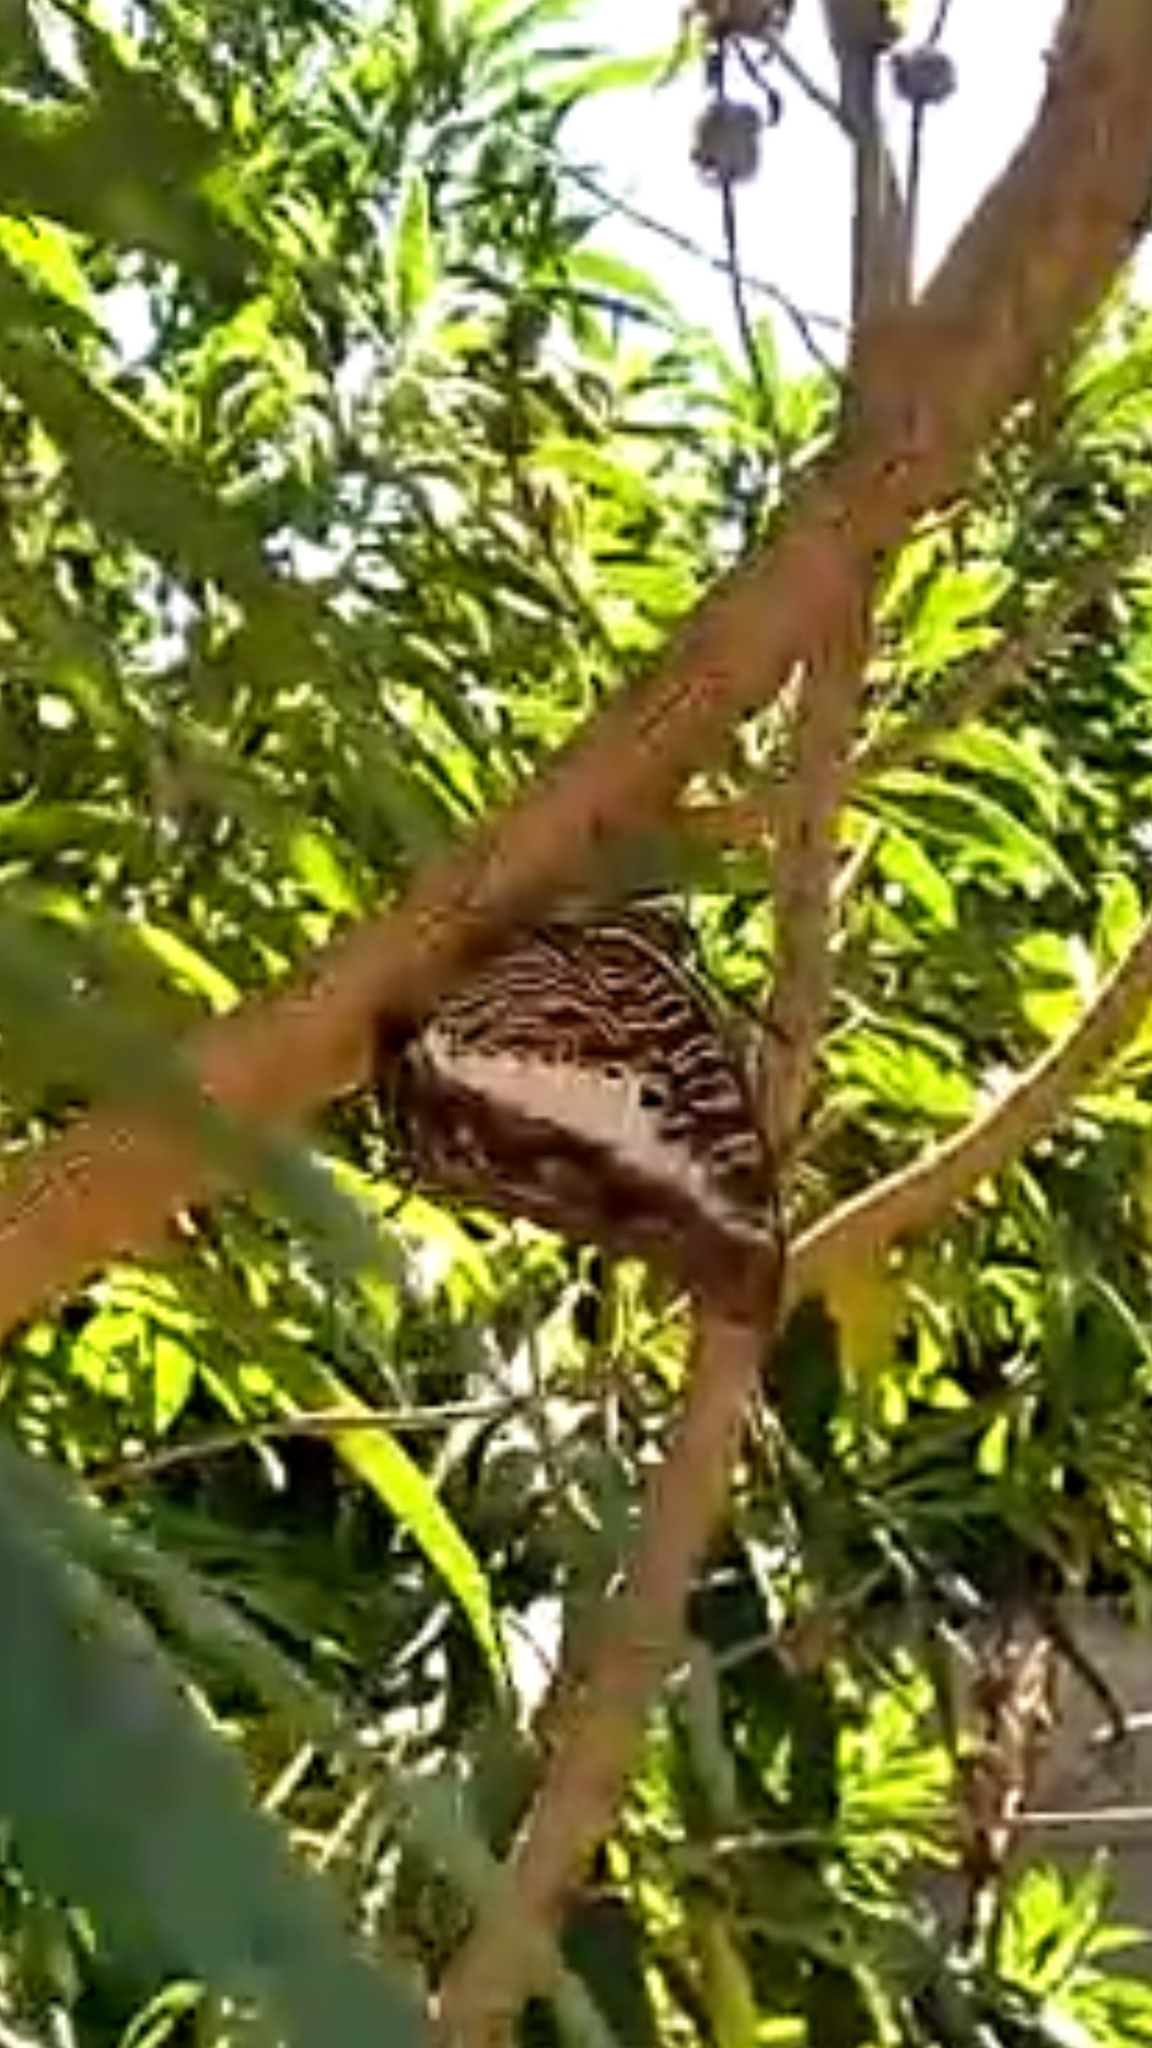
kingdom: Animalia
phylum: Arthropoda
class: Insecta
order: Lepidoptera
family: Nymphalidae
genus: Charaxes
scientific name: Charaxes brutus
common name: White-barred charaxes
